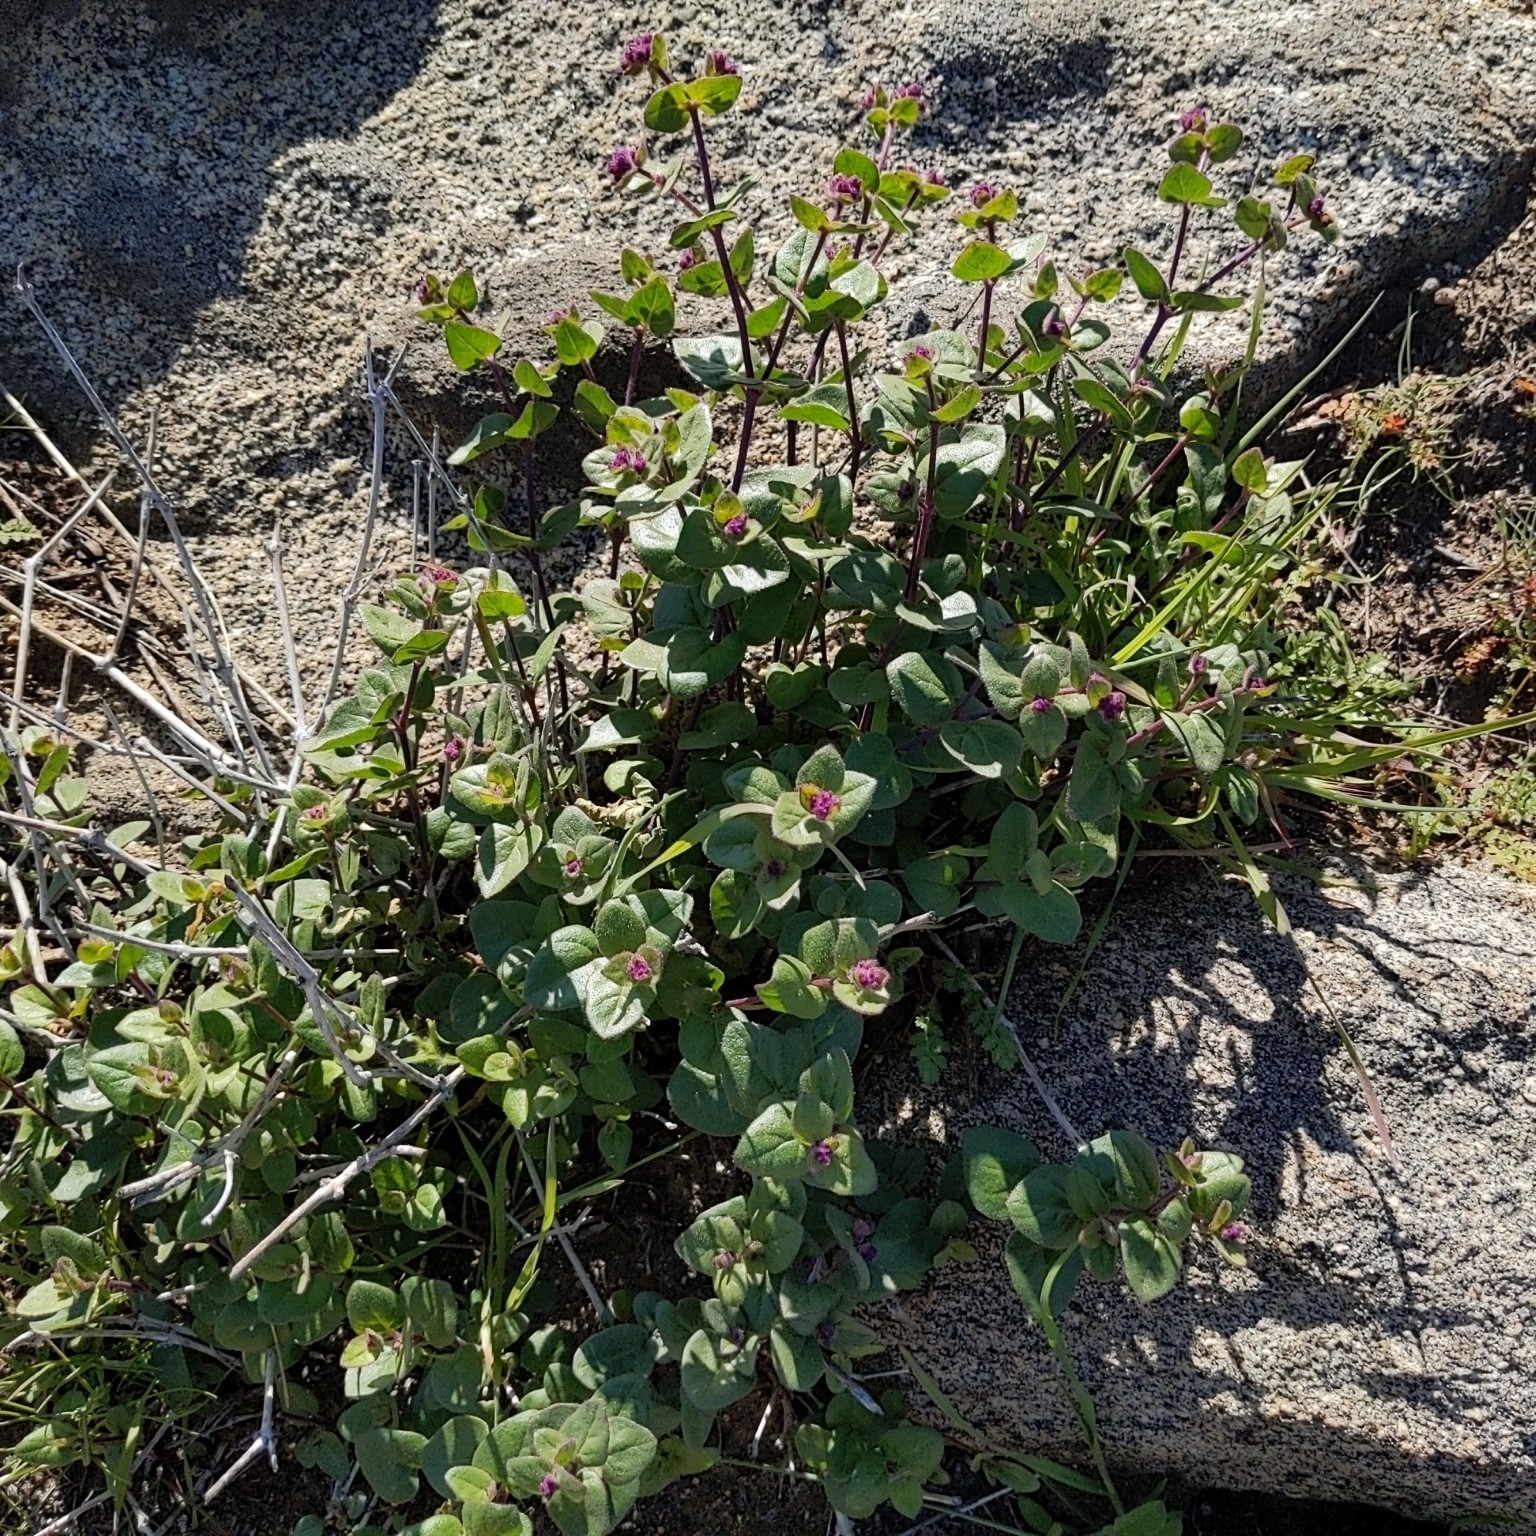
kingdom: Plantae
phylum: Tracheophyta
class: Magnoliopsida
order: Caryophyllales
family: Nyctaginaceae
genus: Mirabilis
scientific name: Mirabilis laevis
